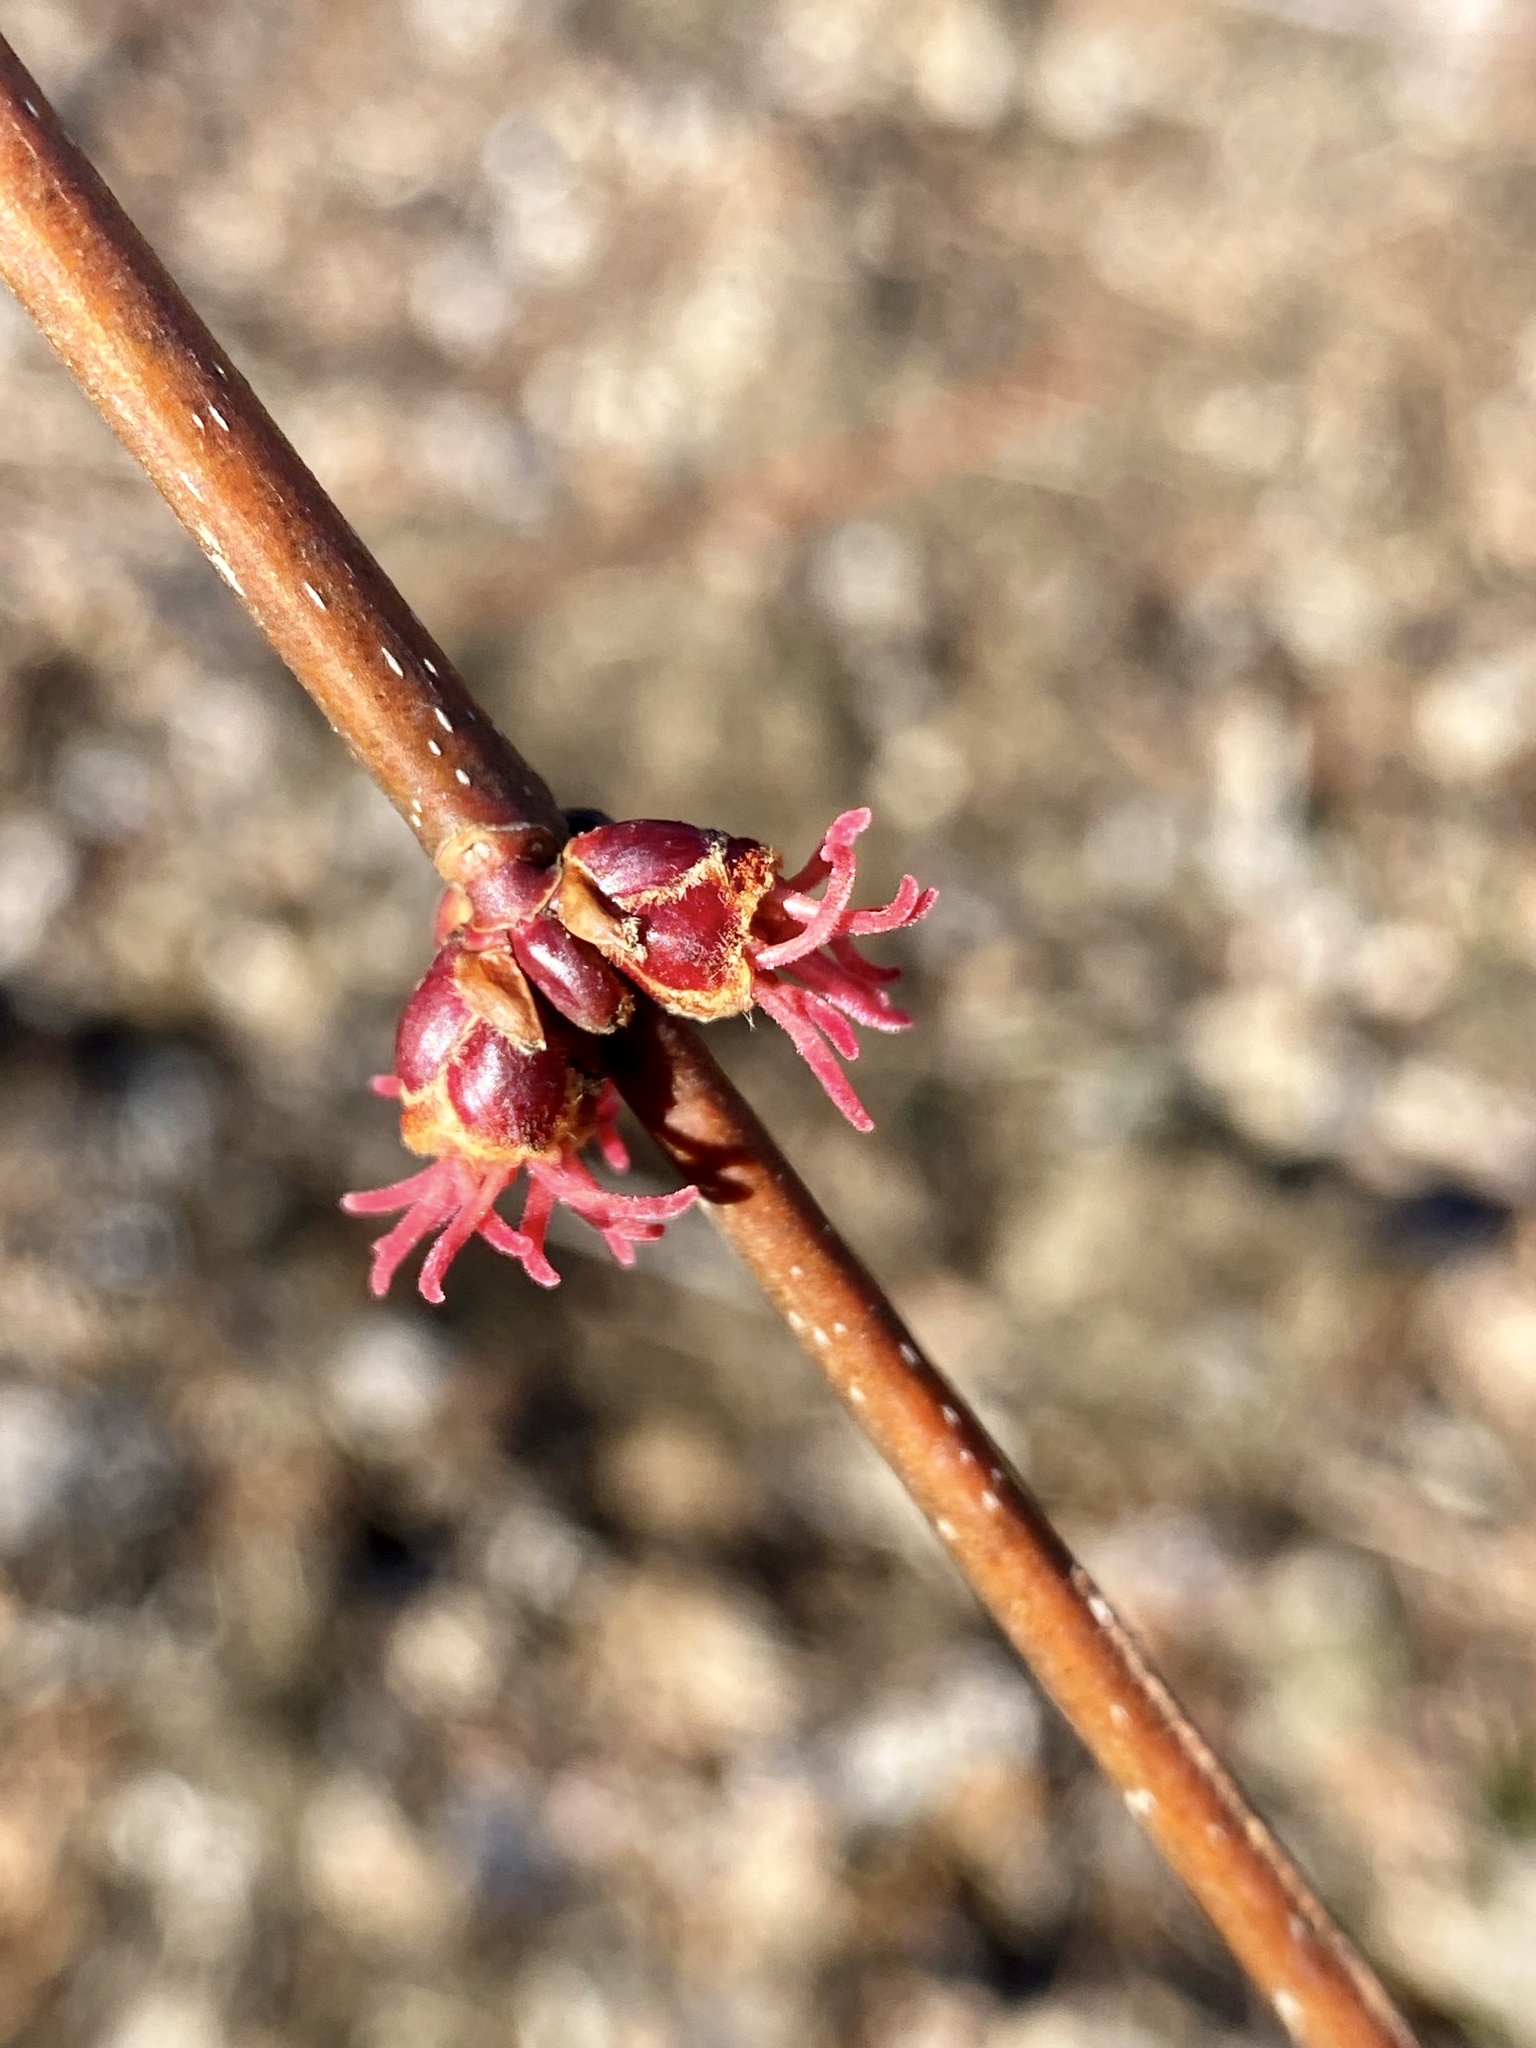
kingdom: Plantae
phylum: Tracheophyta
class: Magnoliopsida
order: Sapindales
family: Sapindaceae
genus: Acer
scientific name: Acer rubrum
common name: Red maple
